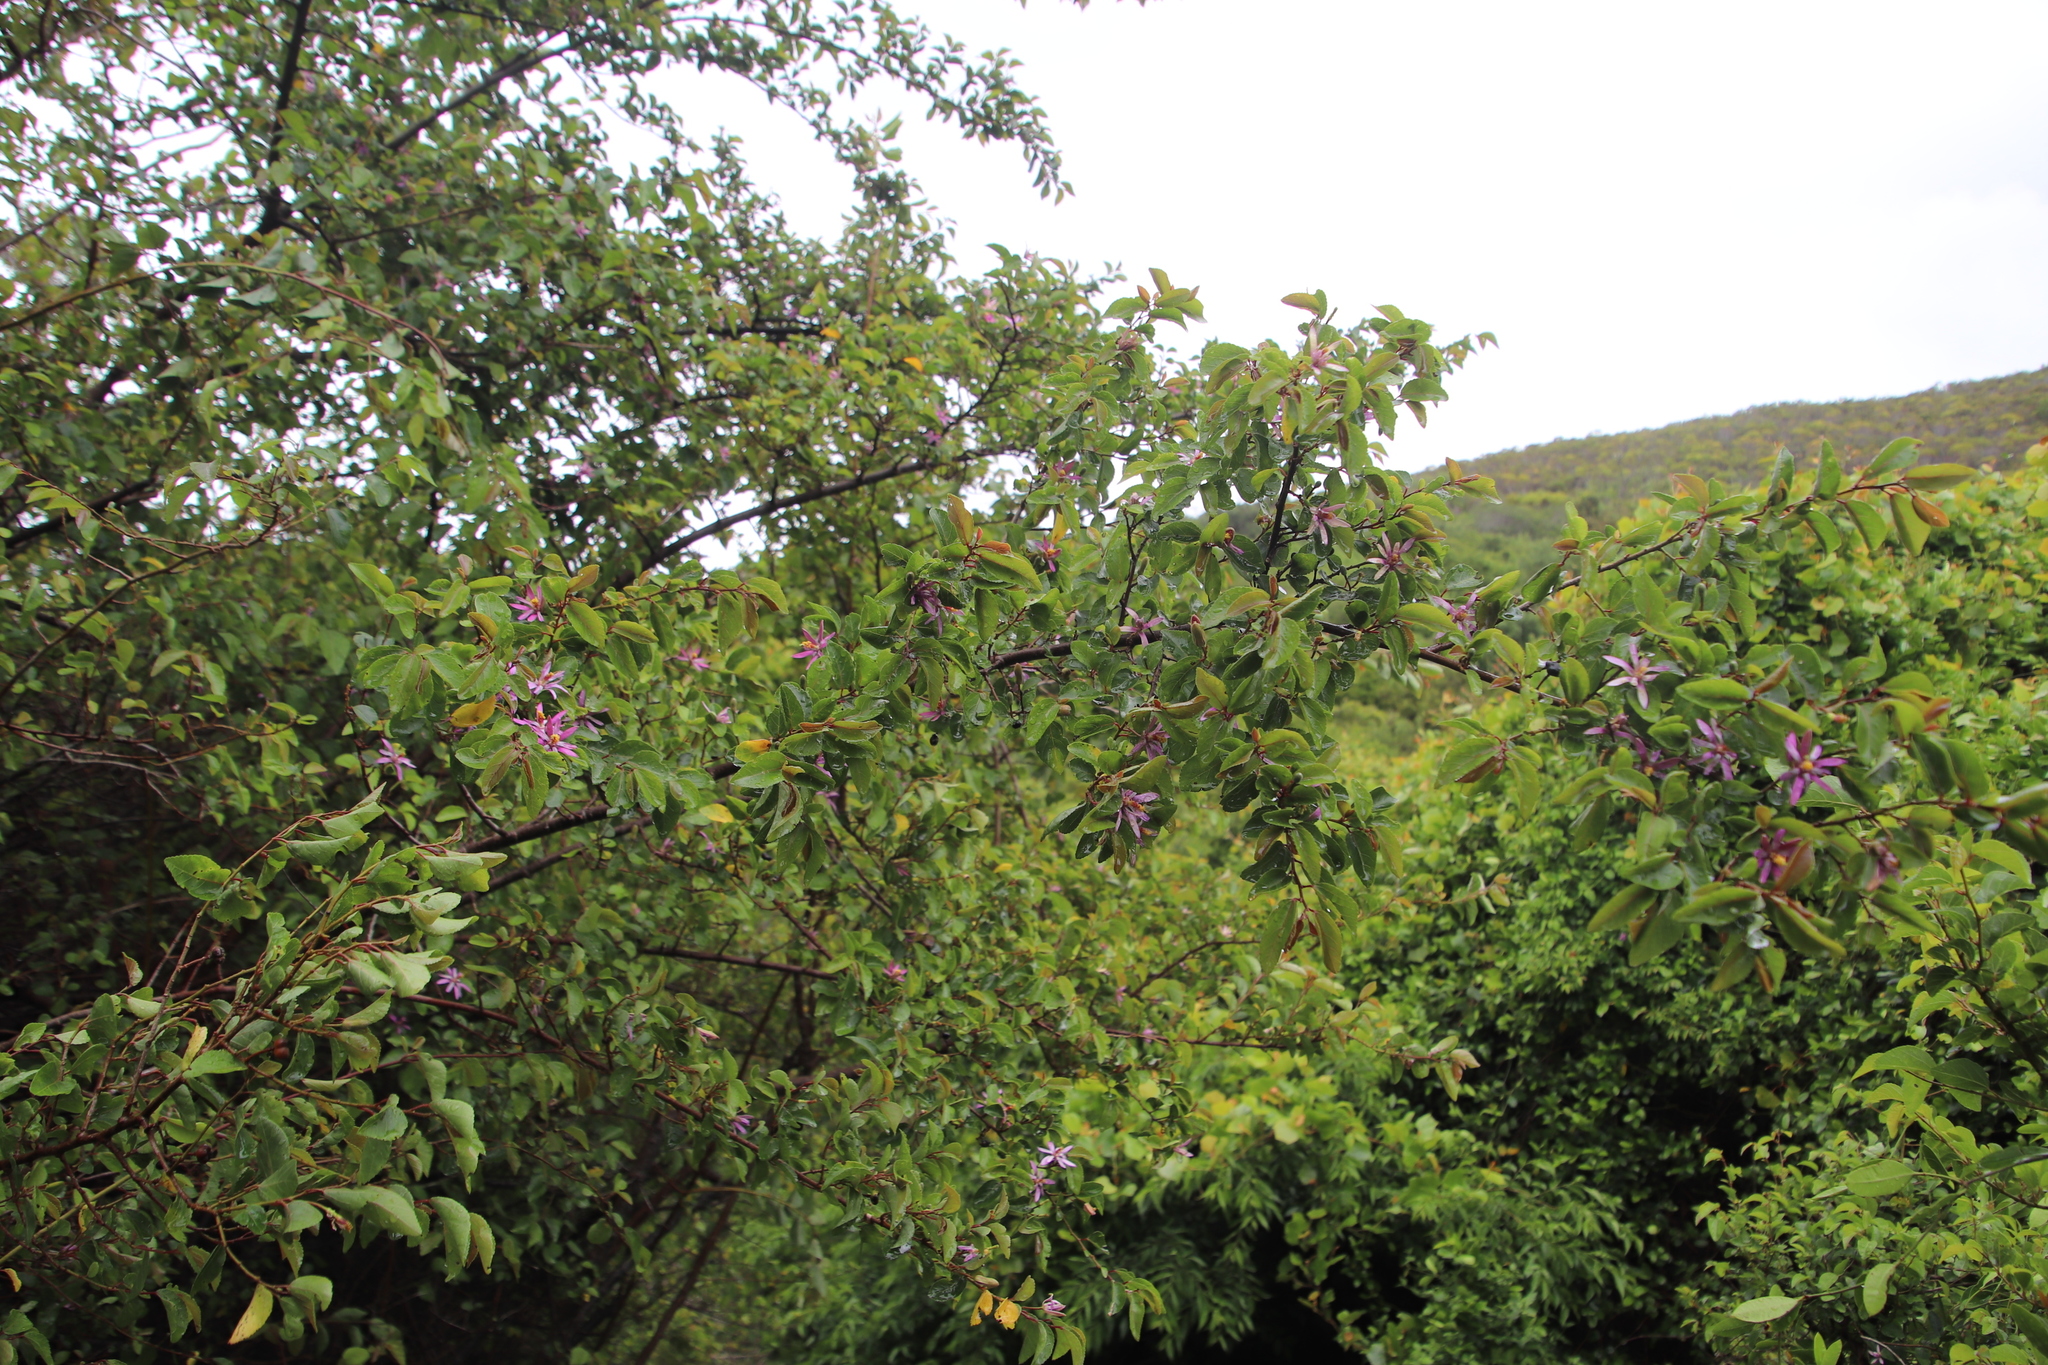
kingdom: Plantae
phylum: Tracheophyta
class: Magnoliopsida
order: Malvales
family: Malvaceae
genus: Grewia
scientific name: Grewia occidentalis
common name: Crossberry
